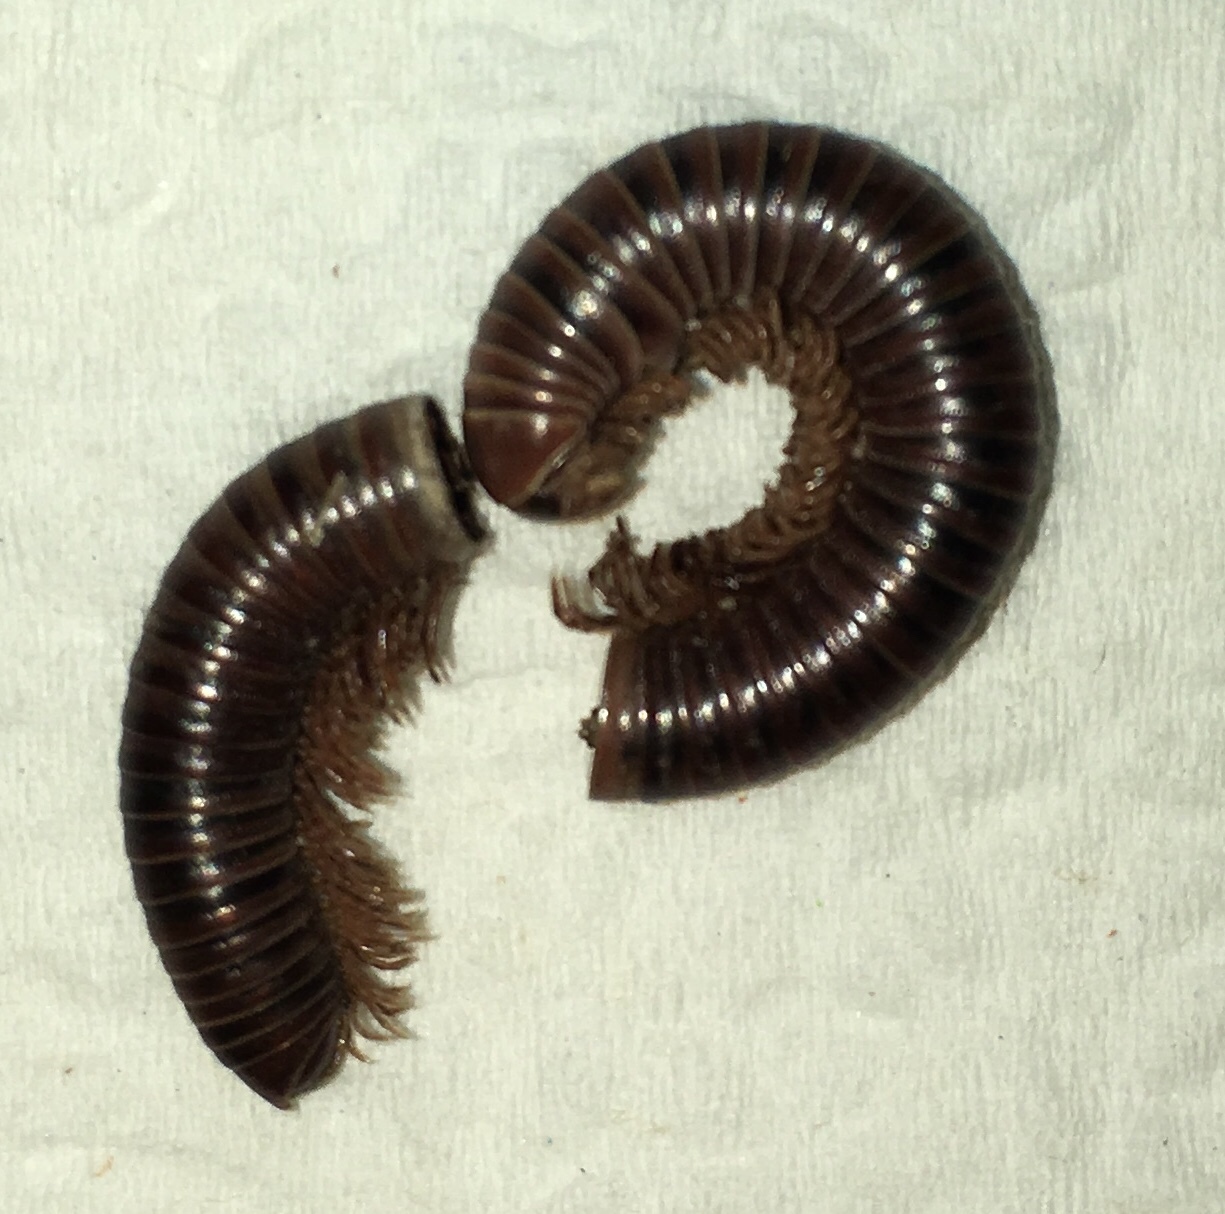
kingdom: Animalia
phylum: Arthropoda
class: Diplopoda
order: Spirobolida
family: Pachybolidae
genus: Trigoniulus
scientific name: Trigoniulus corallinus
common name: Millipede
